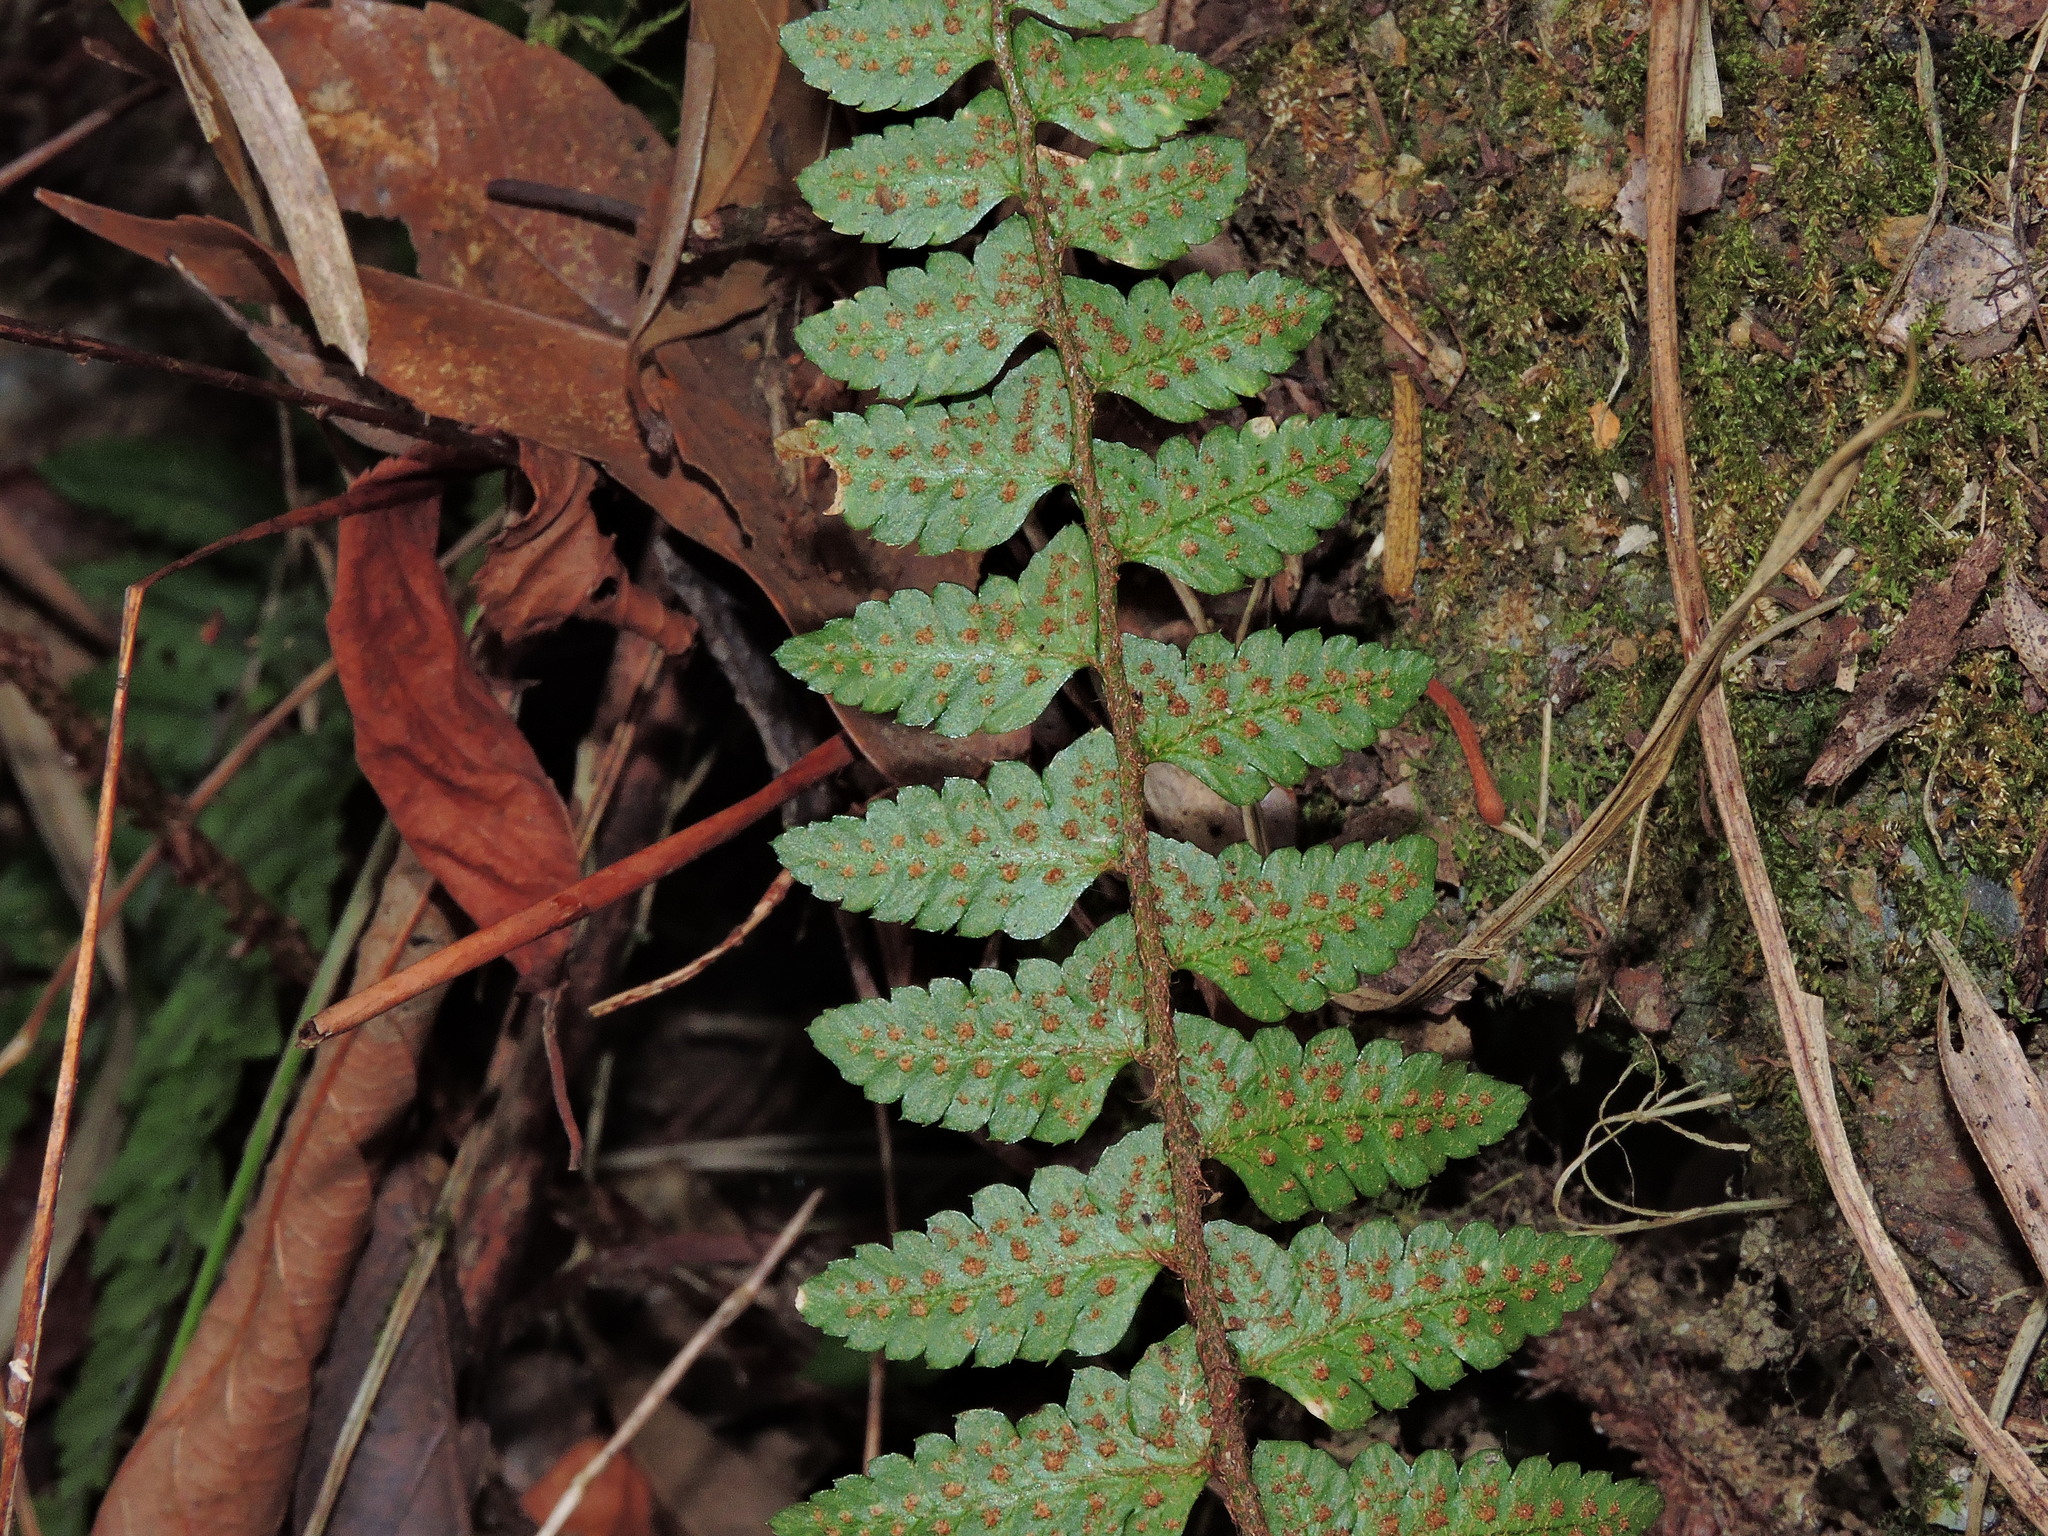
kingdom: Plantae
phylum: Tracheophyta
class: Polypodiopsida
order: Polypodiales
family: Dryopteridaceae
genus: Polystichum
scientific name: Polystichum prionolepis
